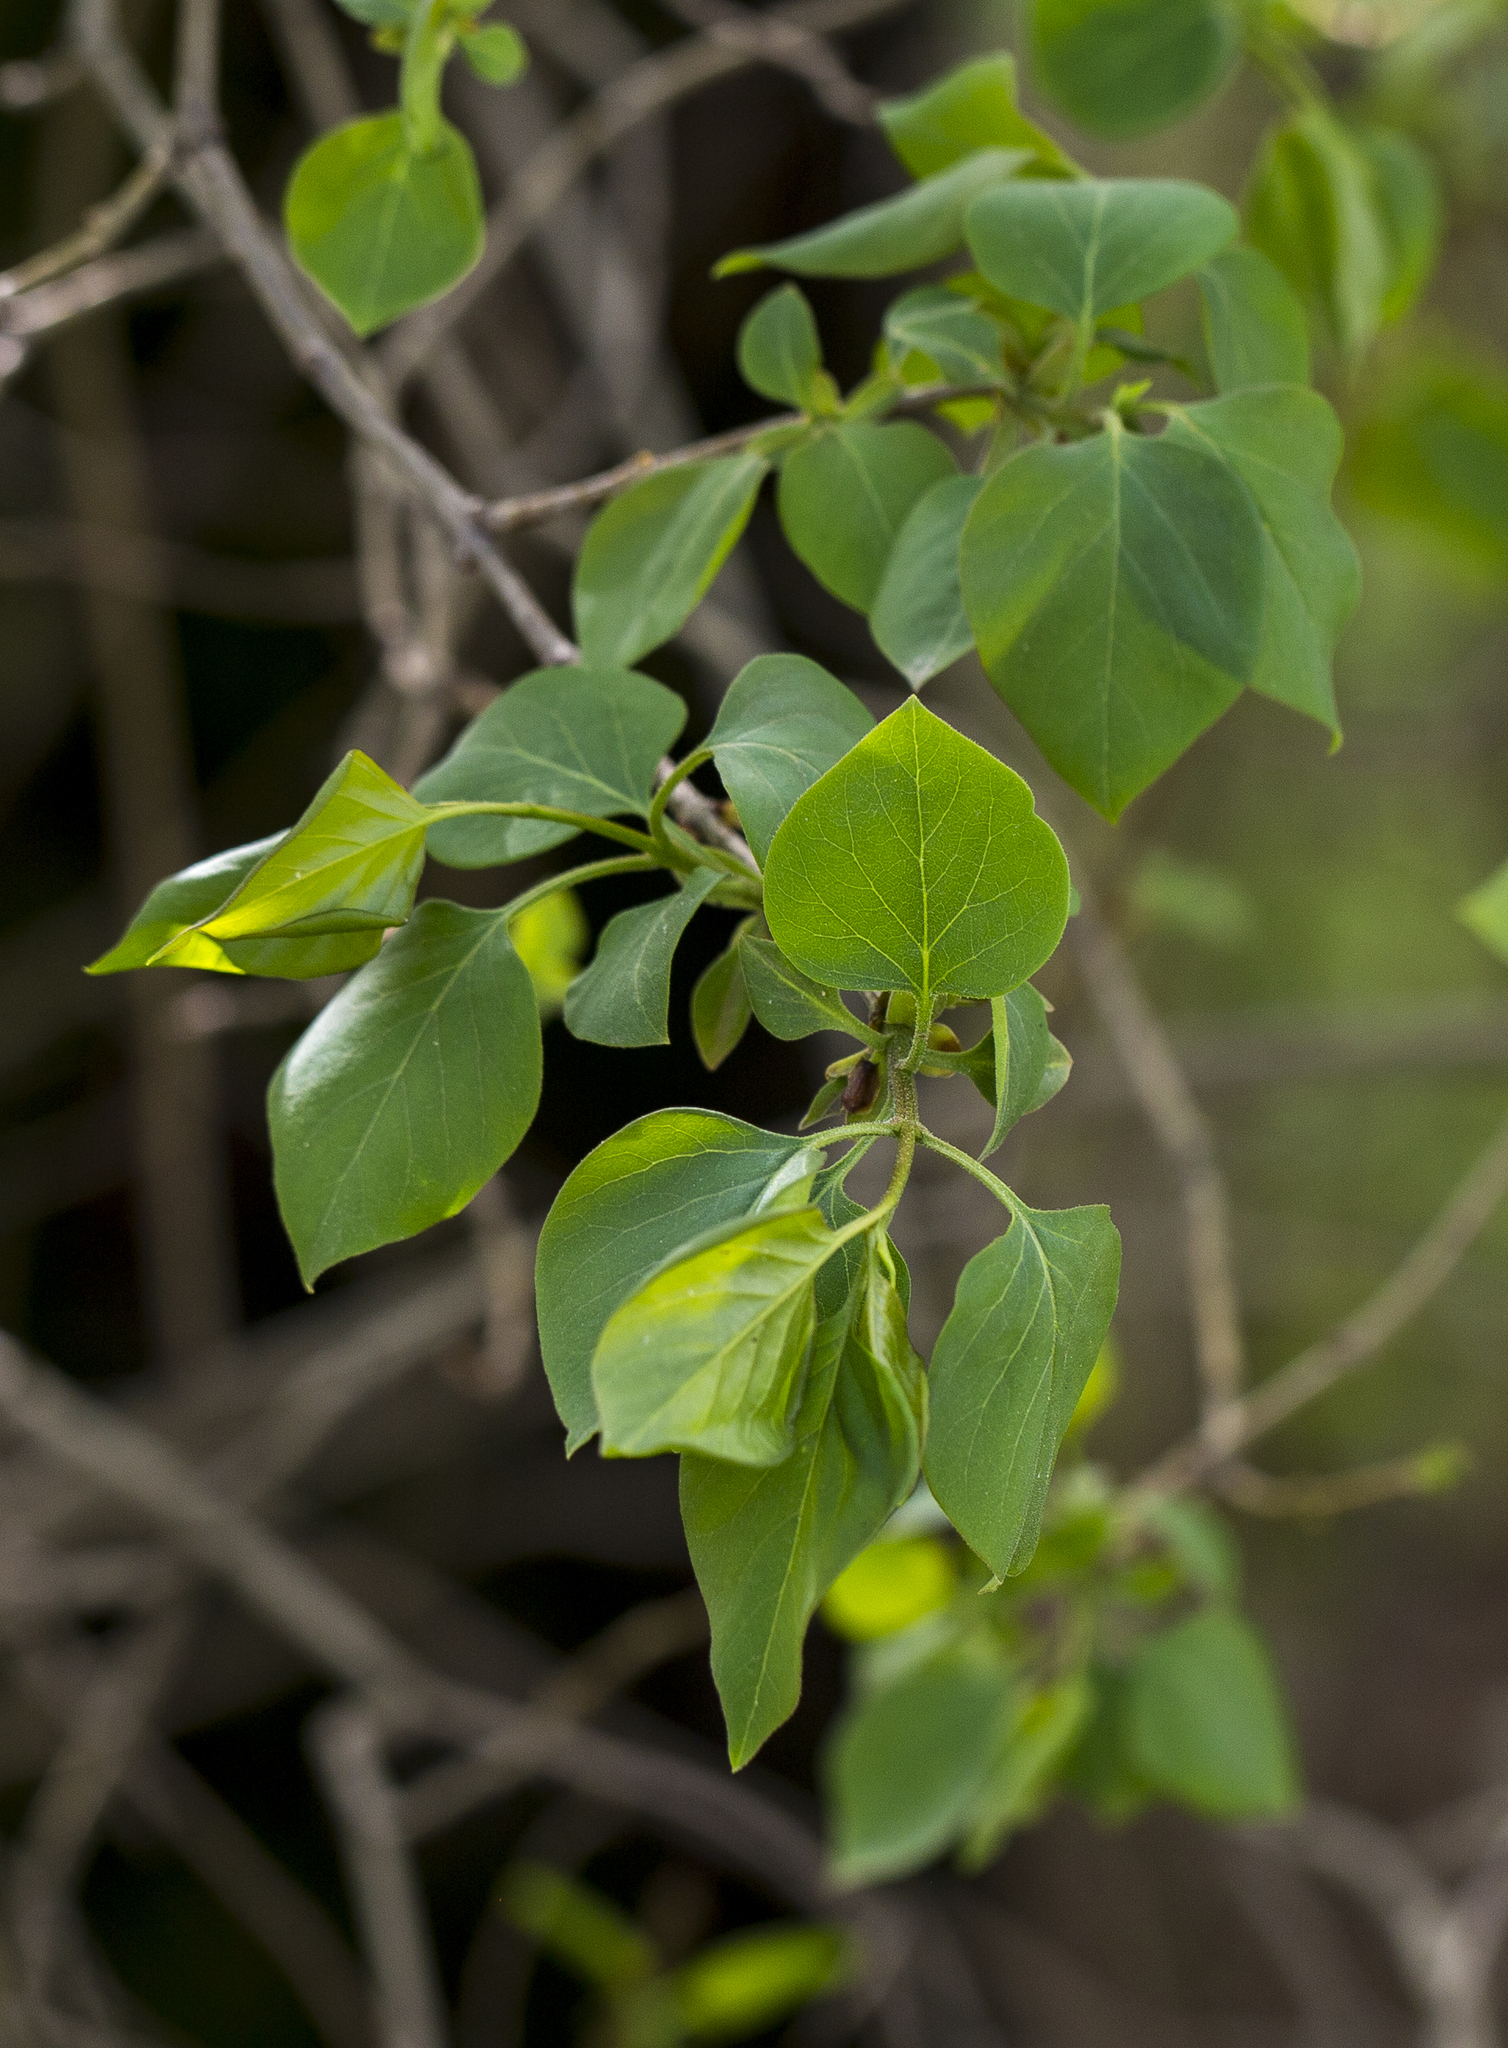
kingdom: Plantae
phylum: Tracheophyta
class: Magnoliopsida
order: Lamiales
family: Oleaceae
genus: Syringa
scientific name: Syringa vulgaris
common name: Common lilac
